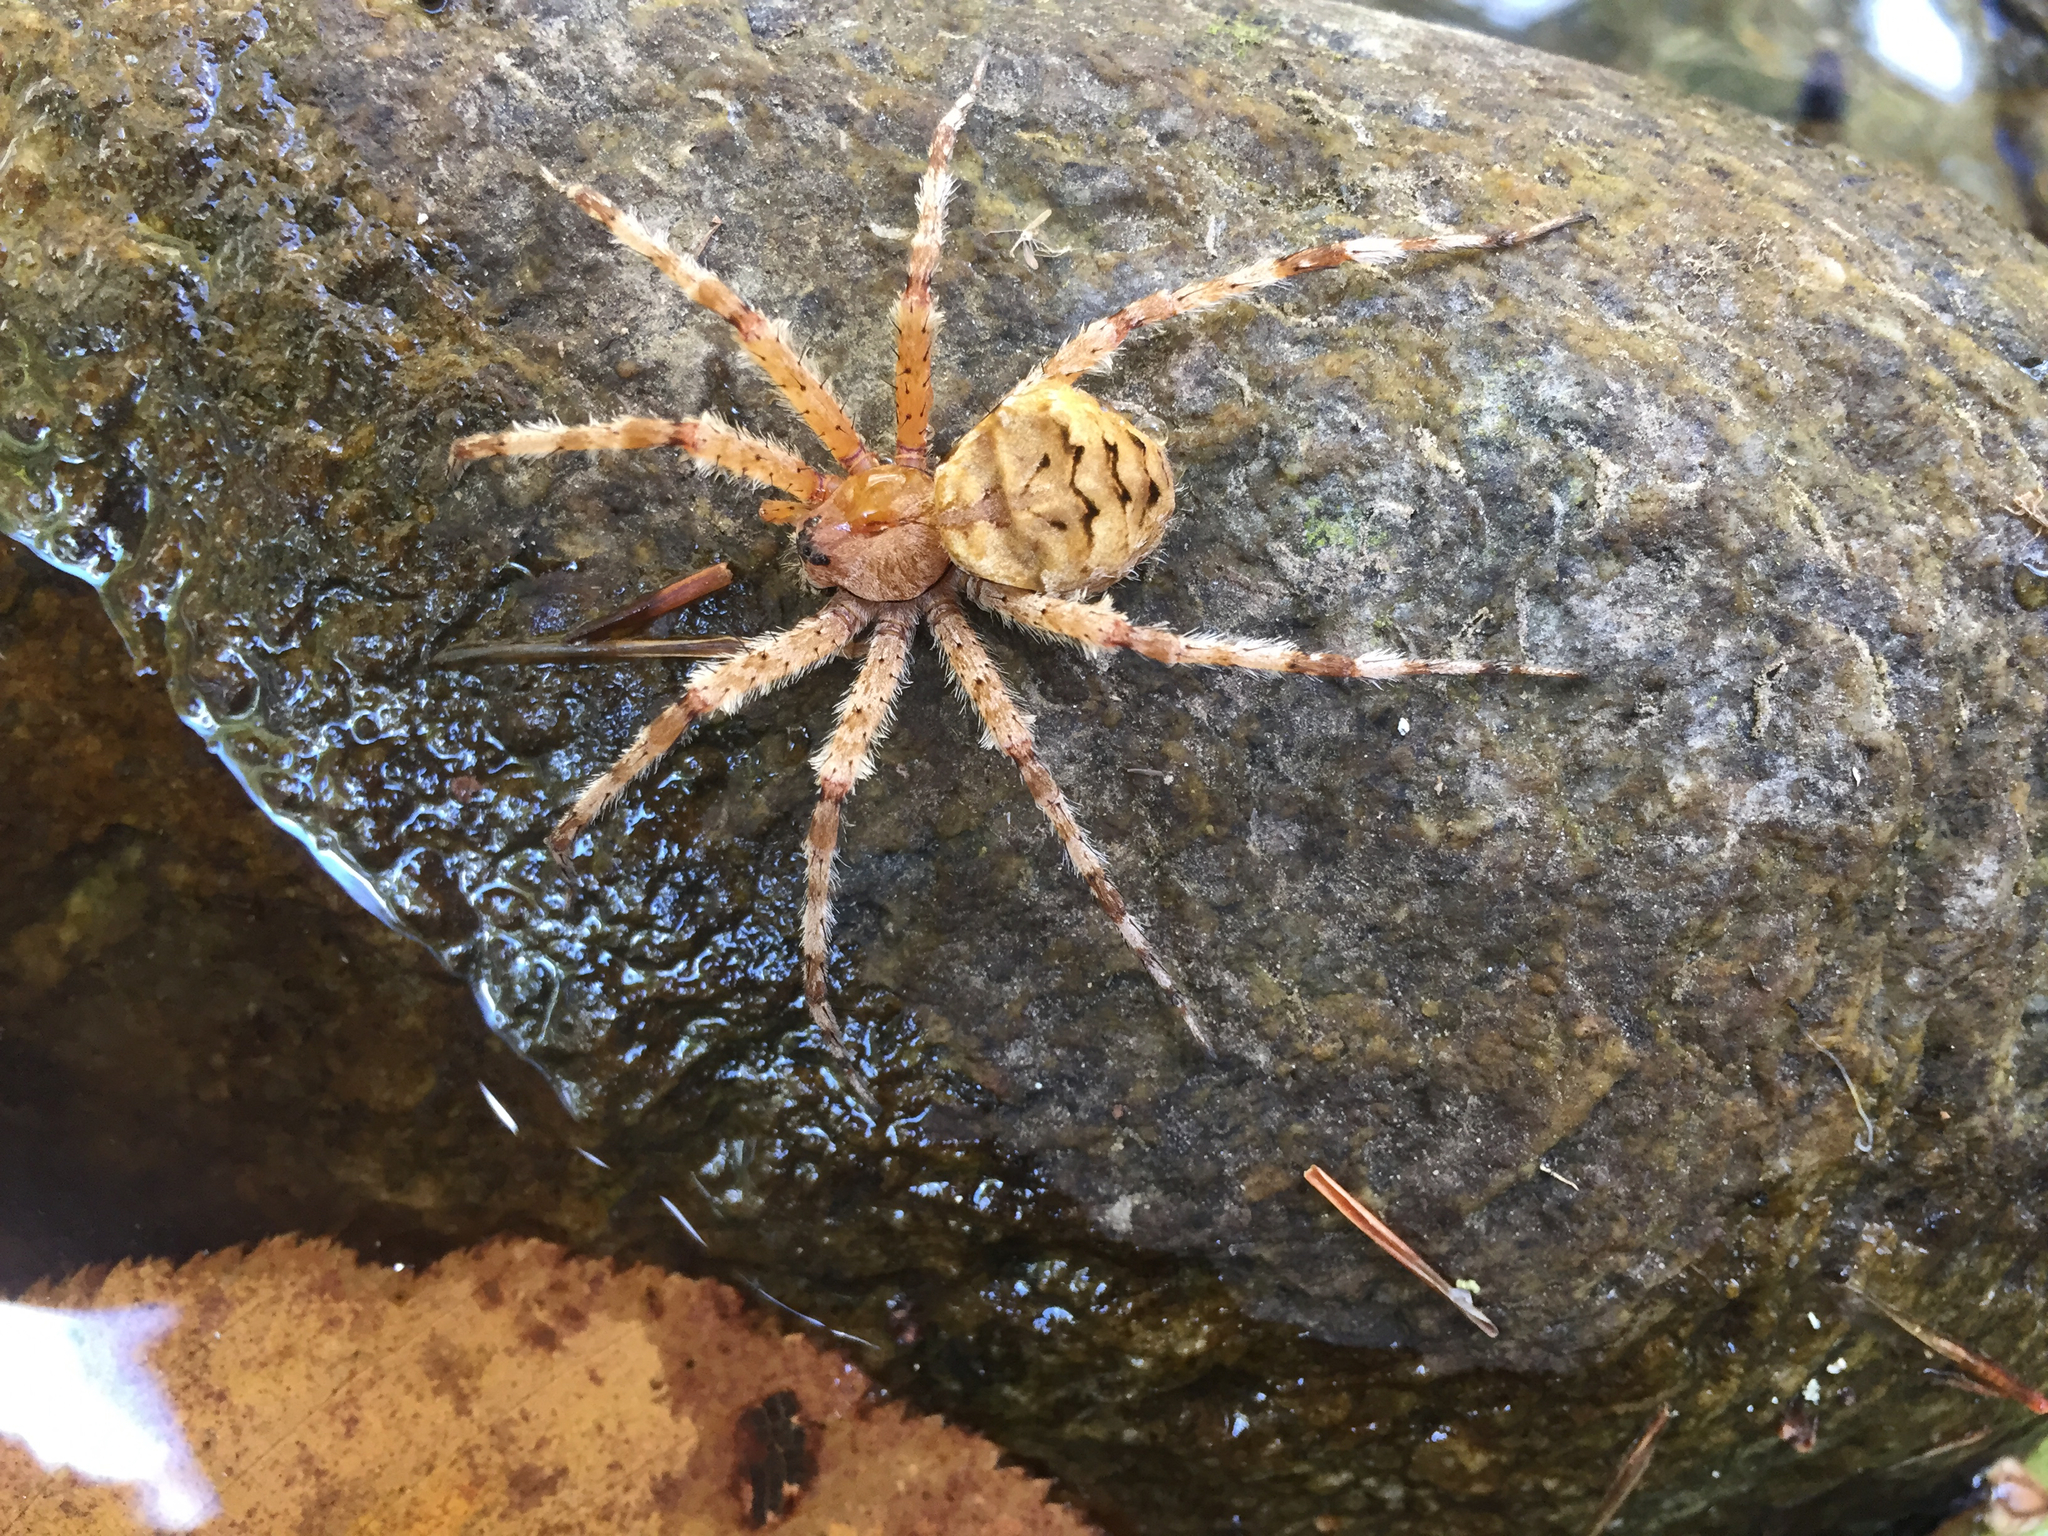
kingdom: Animalia
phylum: Arthropoda
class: Arachnida
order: Araneae
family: Pisauridae
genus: Dolomedes
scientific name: Dolomedes albineus
